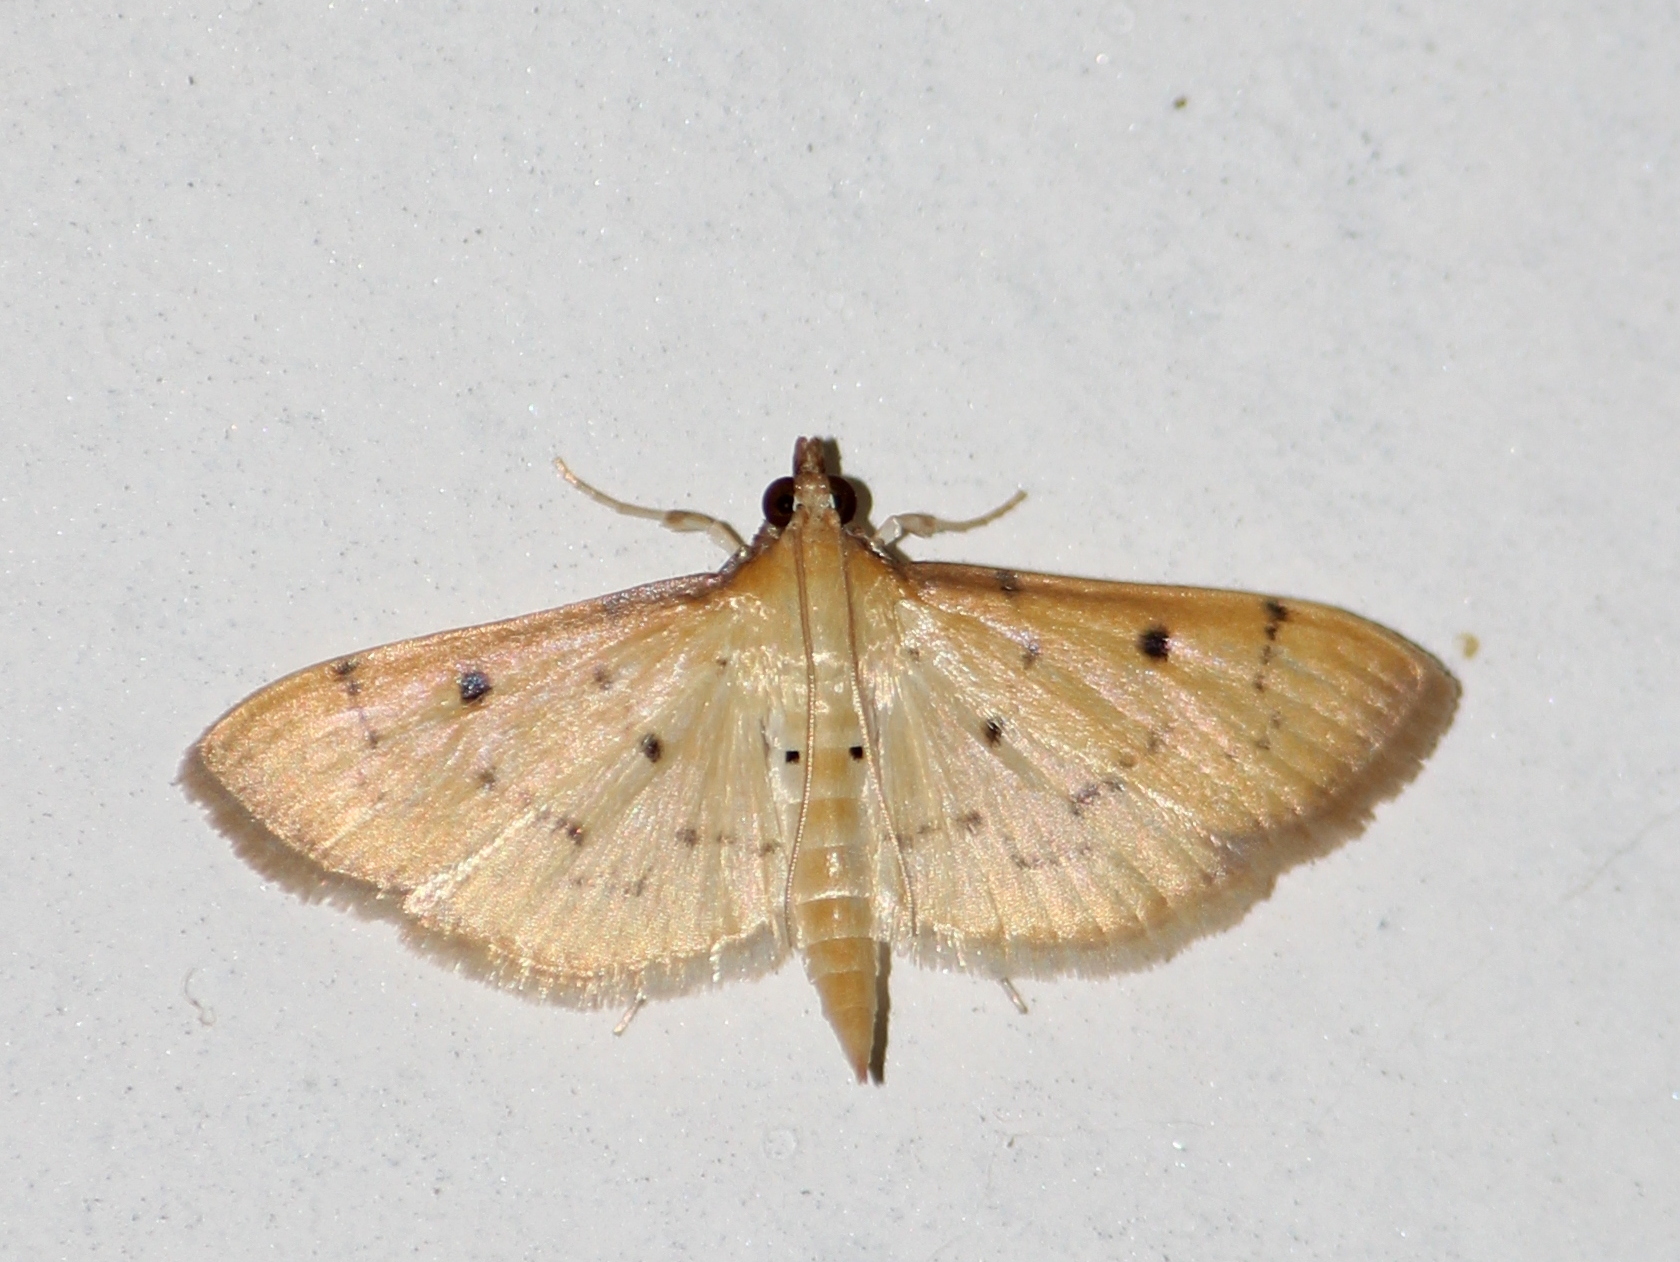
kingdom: Animalia
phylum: Arthropoda
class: Insecta
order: Lepidoptera
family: Crambidae
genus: Herpetogramma
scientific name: Herpetogramma basalis
